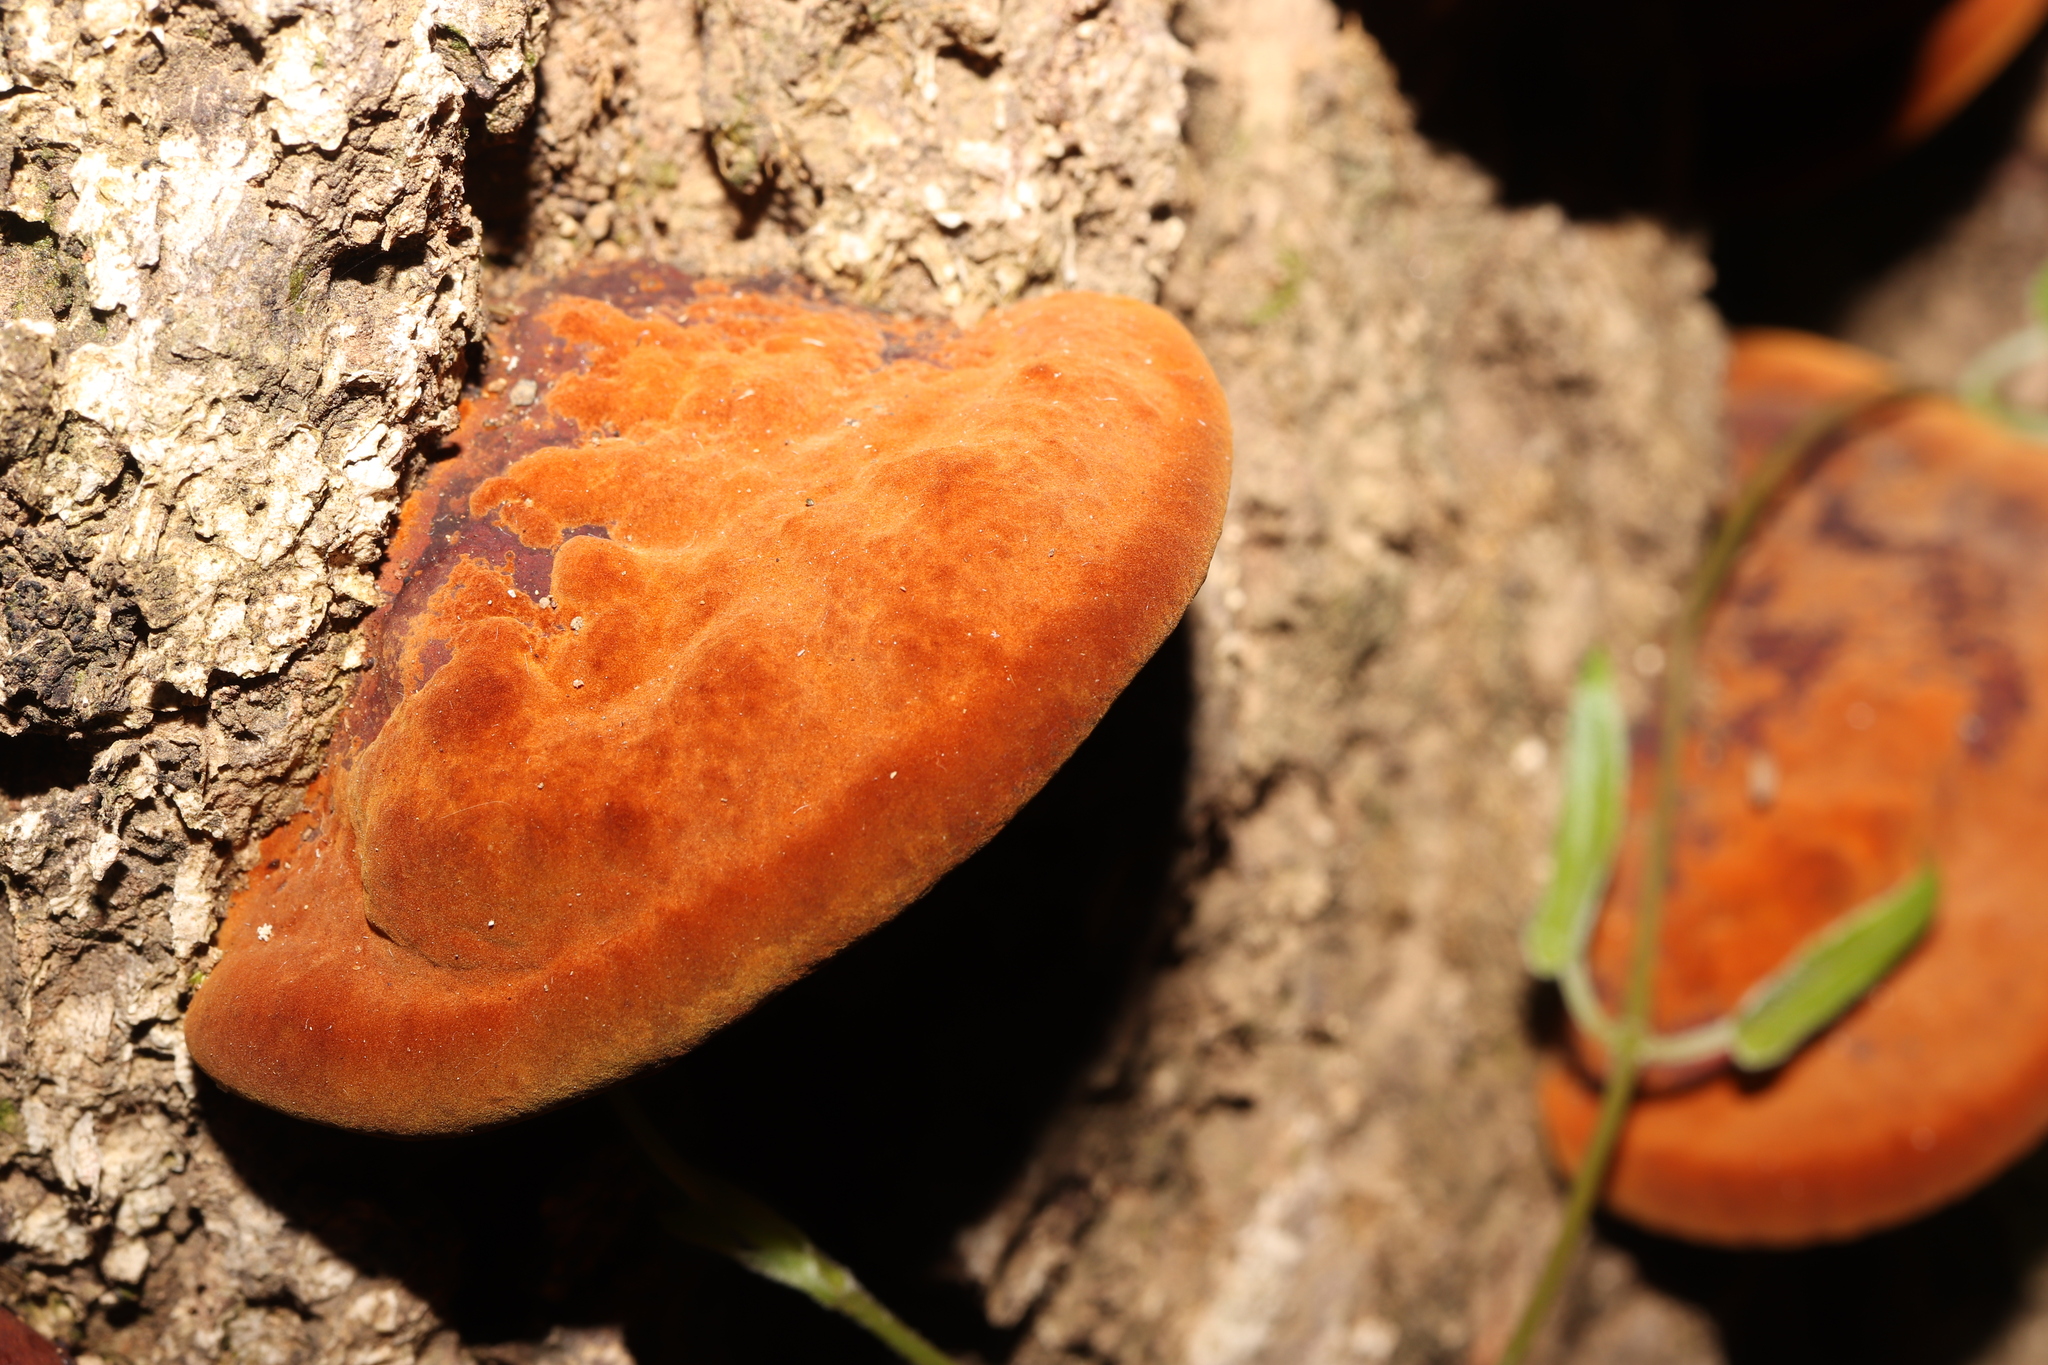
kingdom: Fungi
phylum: Basidiomycota
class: Agaricomycetes
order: Hymenochaetales
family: Hymenochaetaceae
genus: Phellinus
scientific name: Phellinus gilvus
